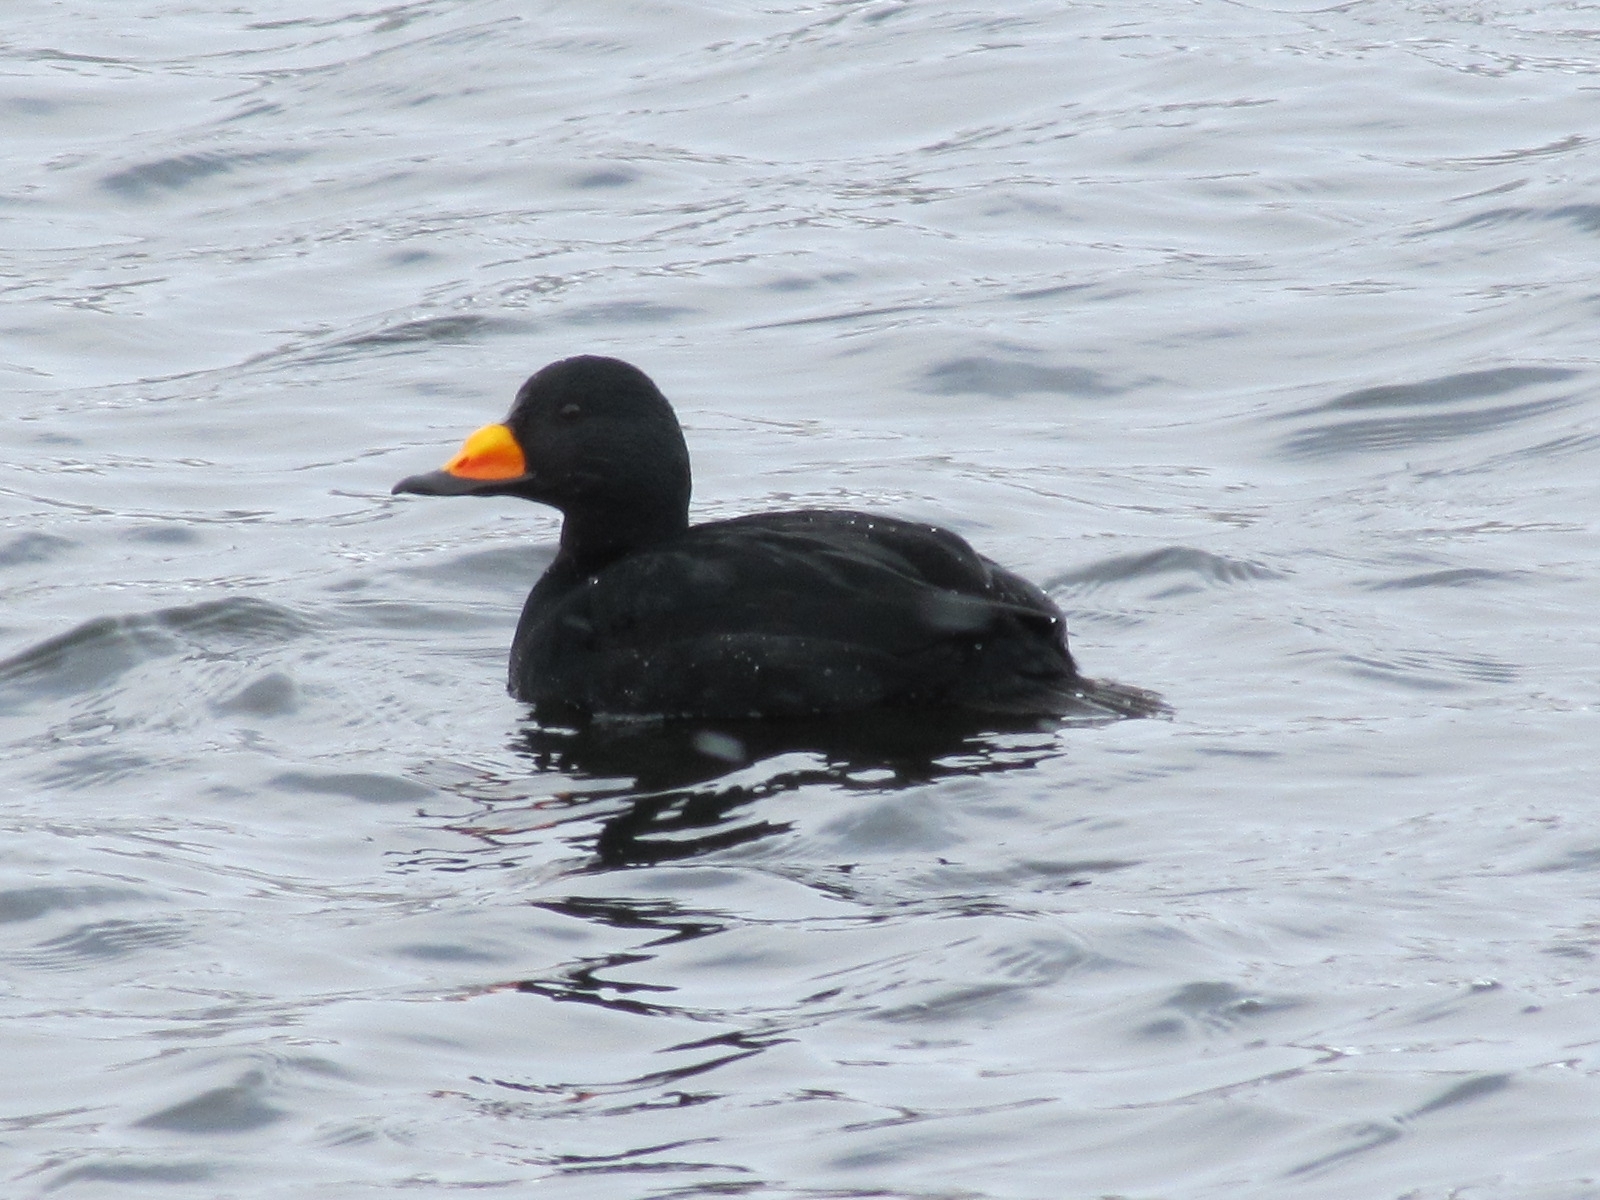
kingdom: Animalia
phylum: Chordata
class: Aves
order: Anseriformes
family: Anatidae
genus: Melanitta
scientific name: Melanitta americana
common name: Black scoter
